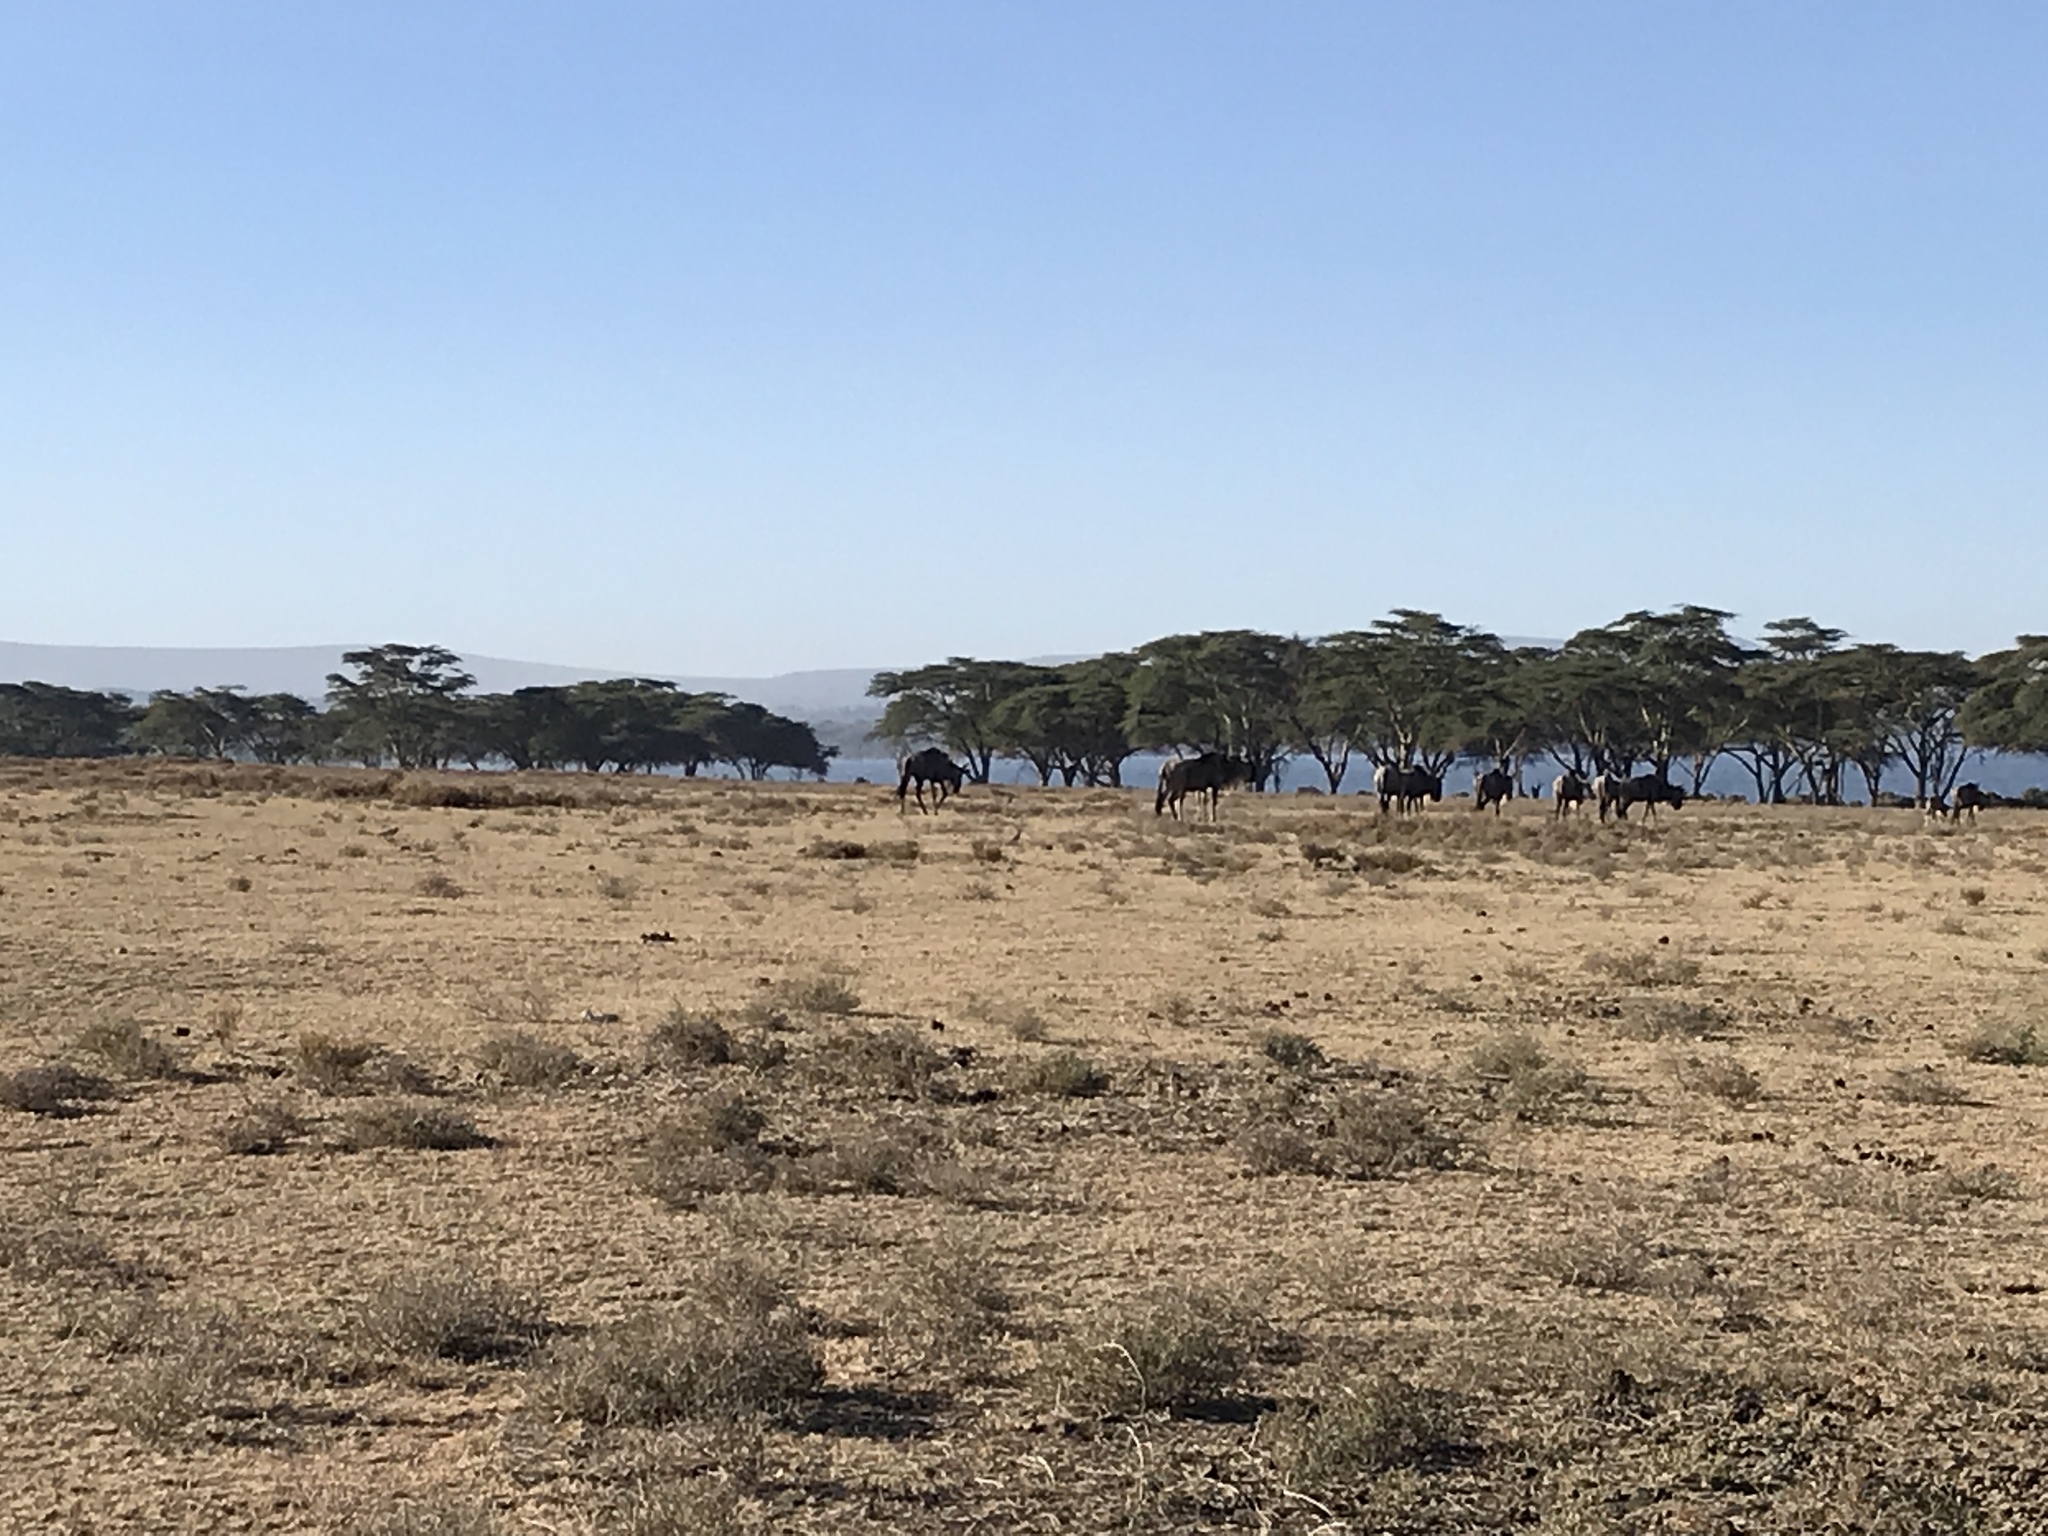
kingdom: Animalia
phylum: Chordata
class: Mammalia
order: Artiodactyla
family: Bovidae
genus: Connochaetes
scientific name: Connochaetes taurinus
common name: Blue wildebeest
